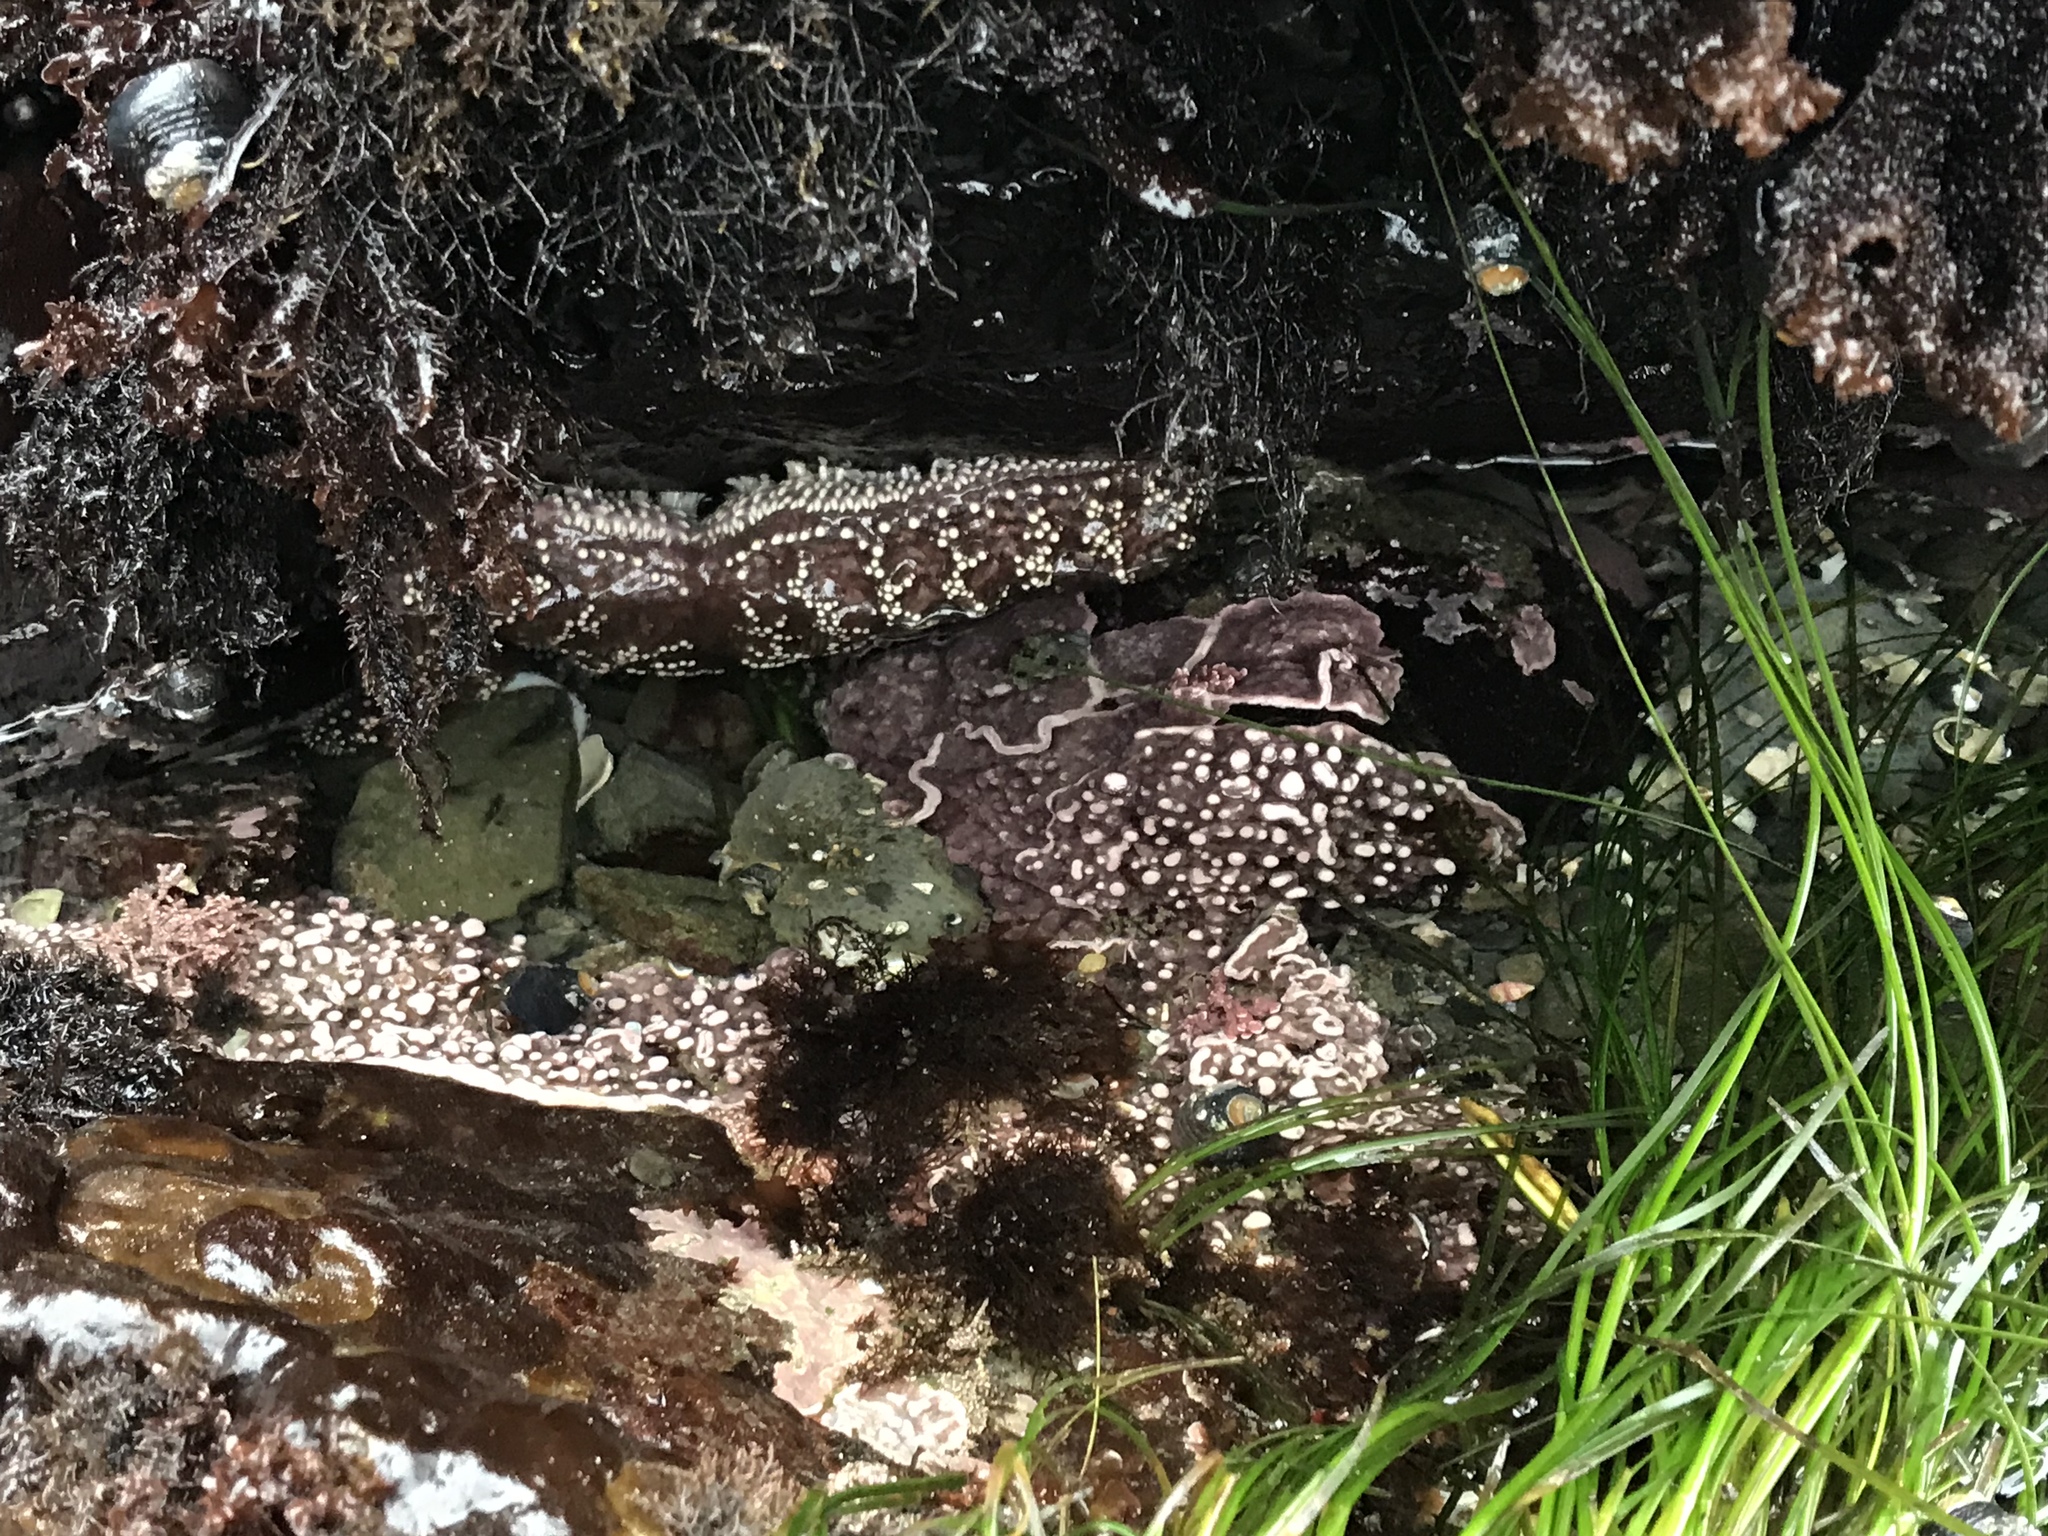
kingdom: Animalia
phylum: Echinodermata
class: Asteroidea
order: Forcipulatida
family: Asteriidae
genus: Pisaster
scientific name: Pisaster ochraceus
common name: Ochre stars
